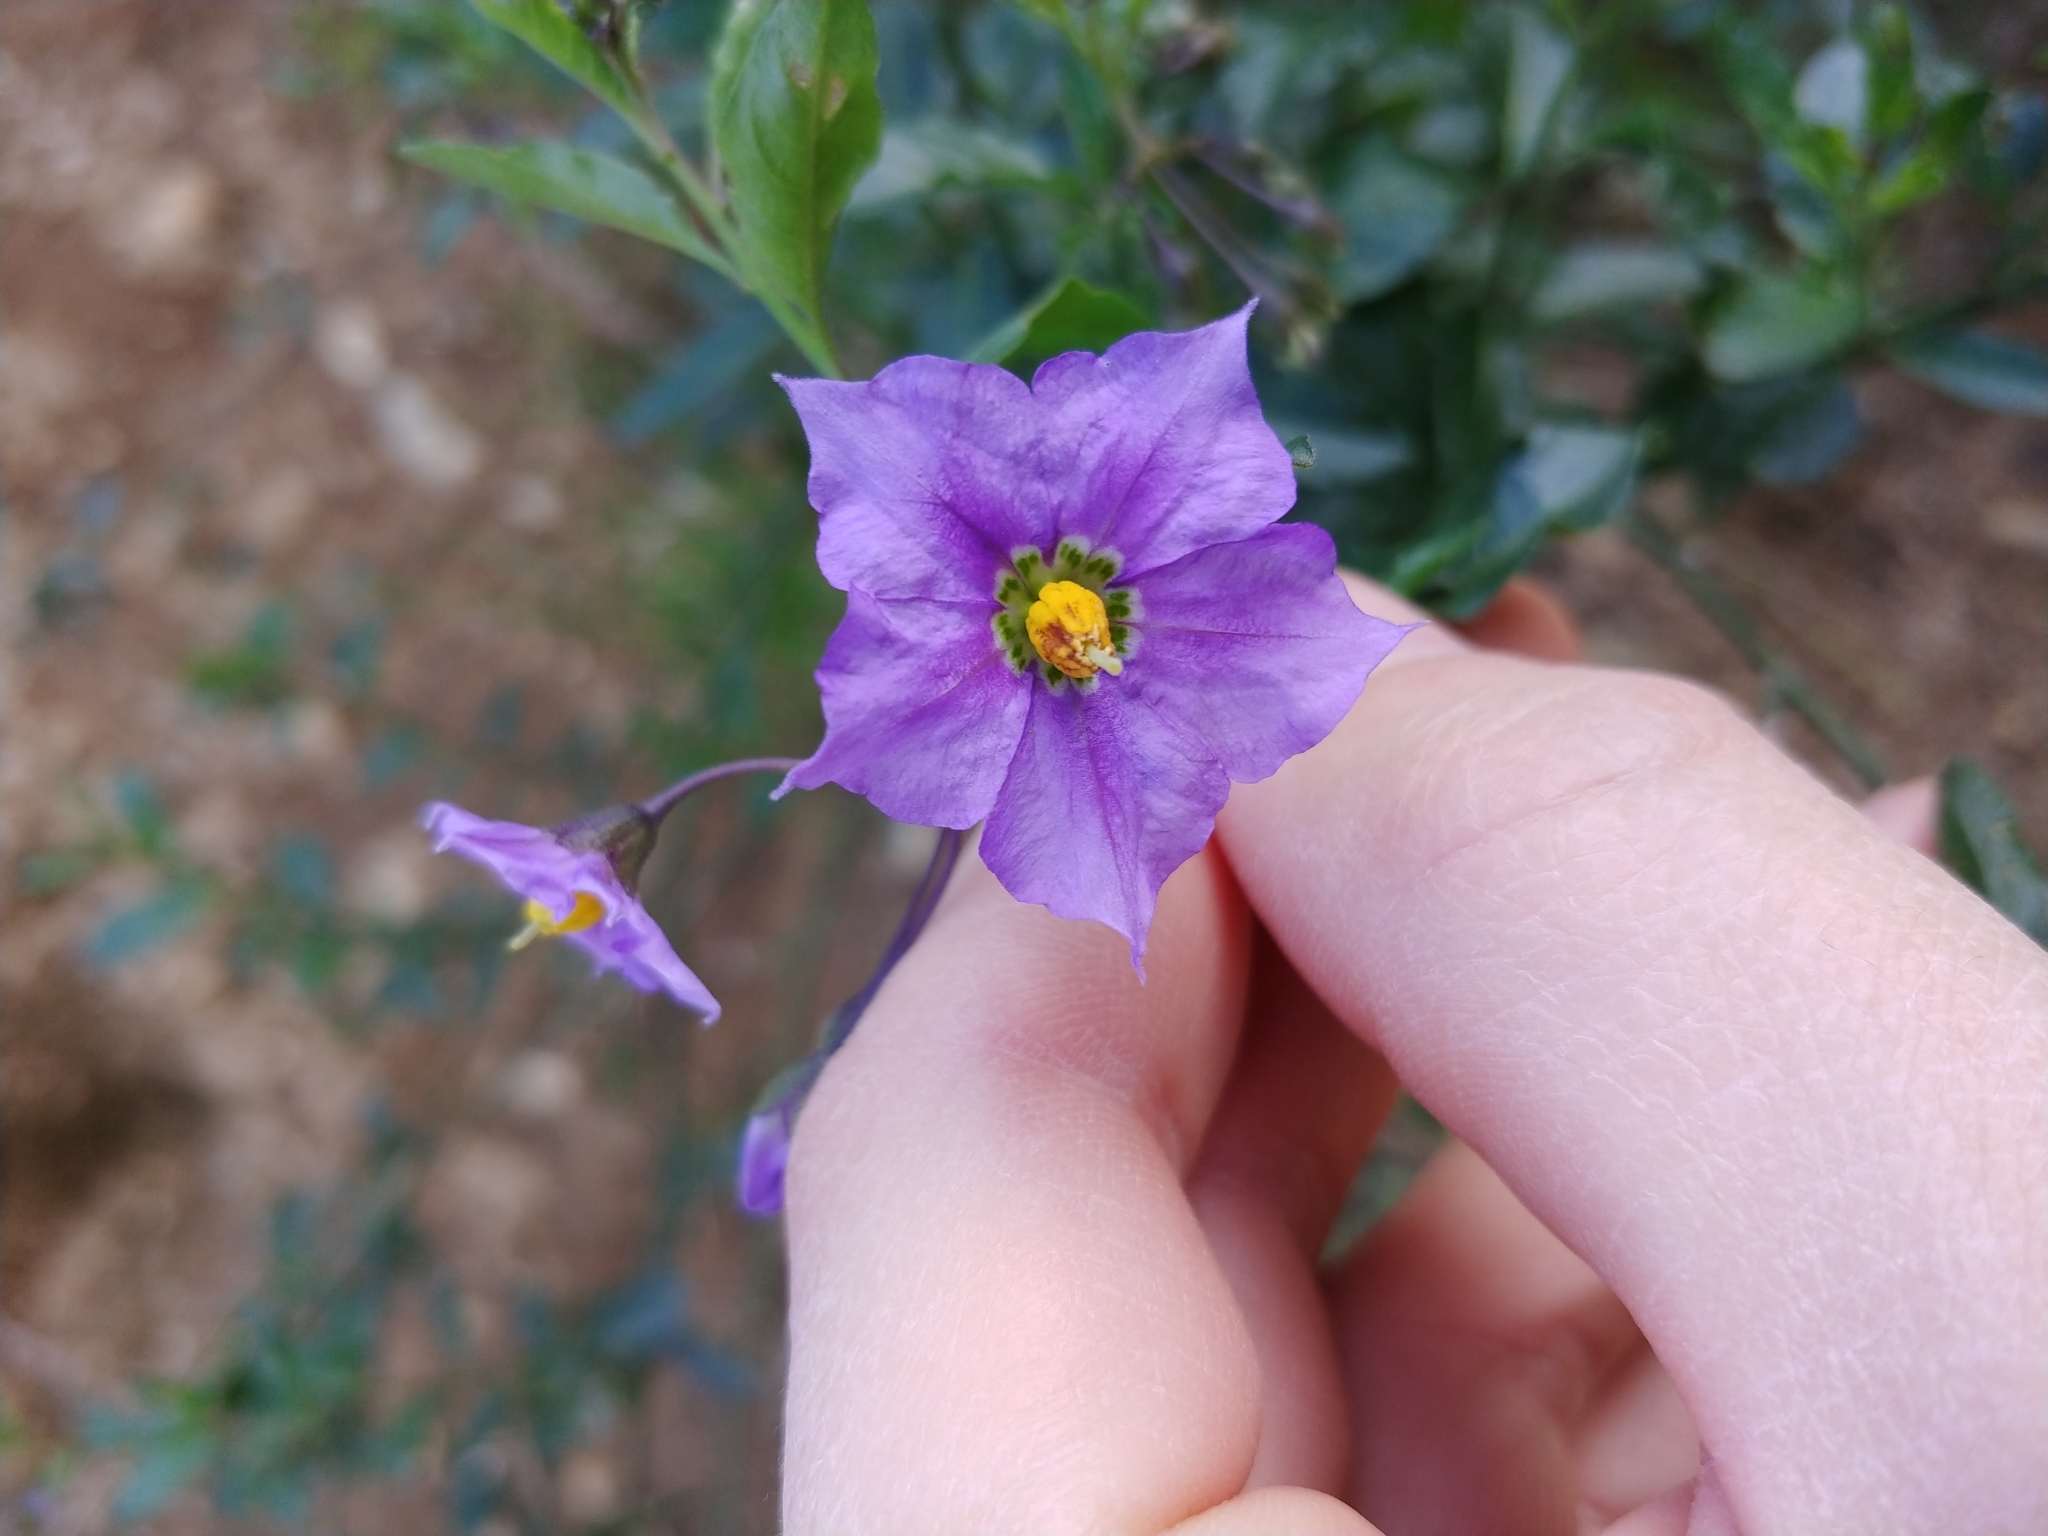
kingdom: Plantae
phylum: Tracheophyta
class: Magnoliopsida
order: Solanales
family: Solanaceae
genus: Solanum
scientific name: Solanum umbelliferum
